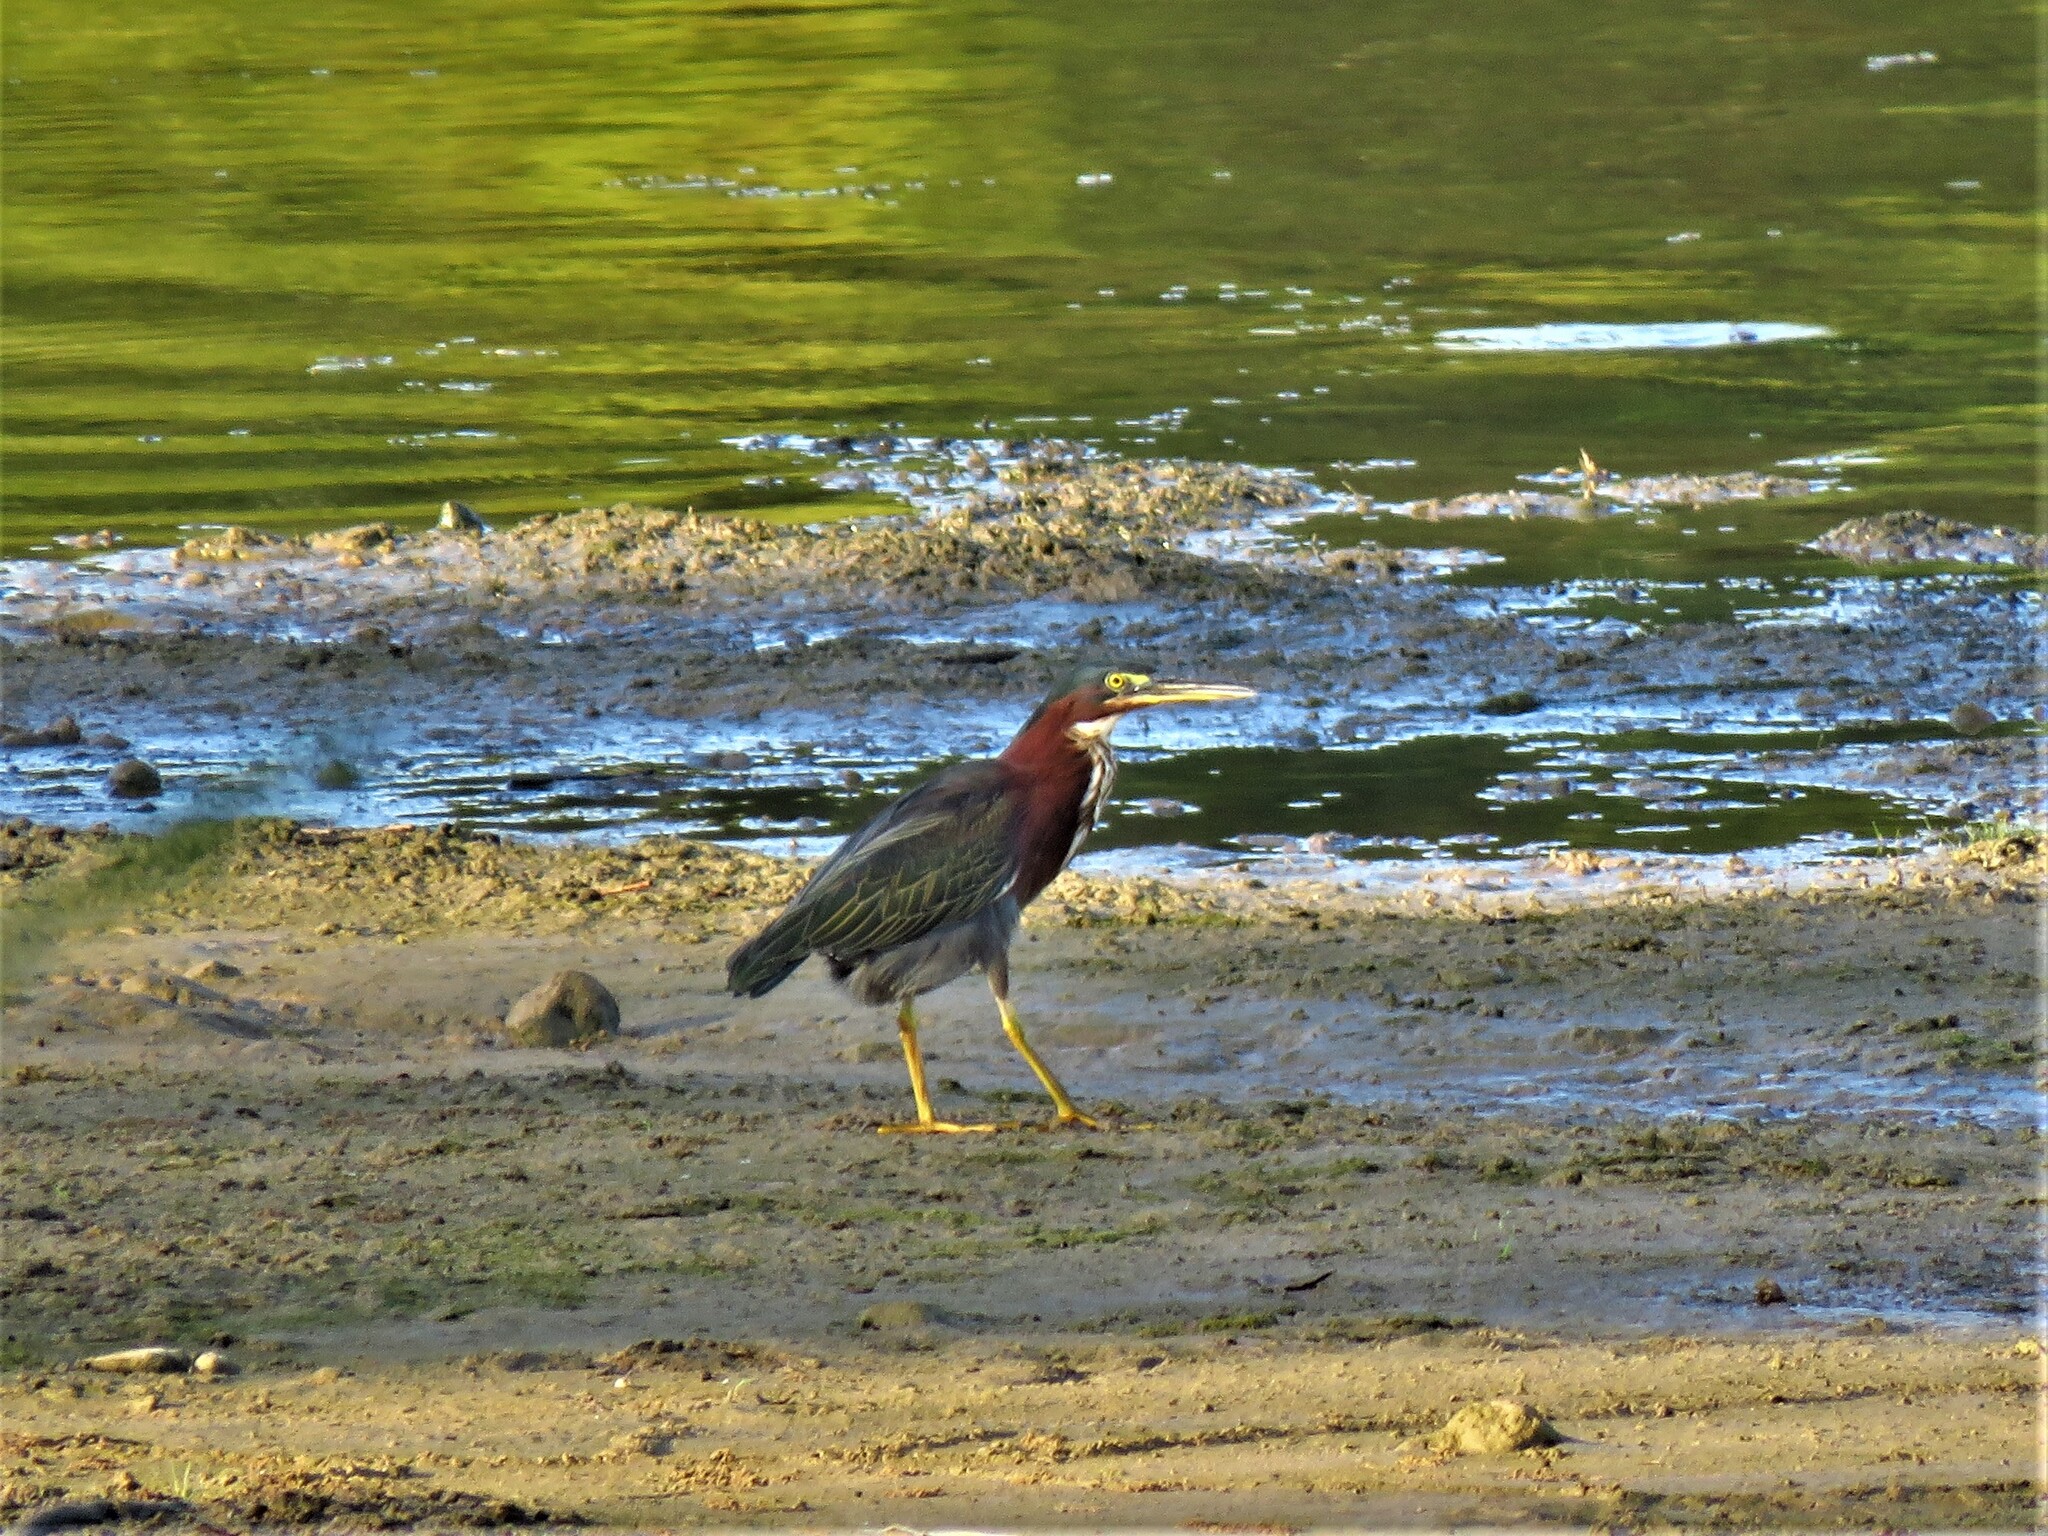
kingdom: Animalia
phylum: Chordata
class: Aves
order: Pelecaniformes
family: Ardeidae
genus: Butorides
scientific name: Butorides virescens
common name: Green heron
